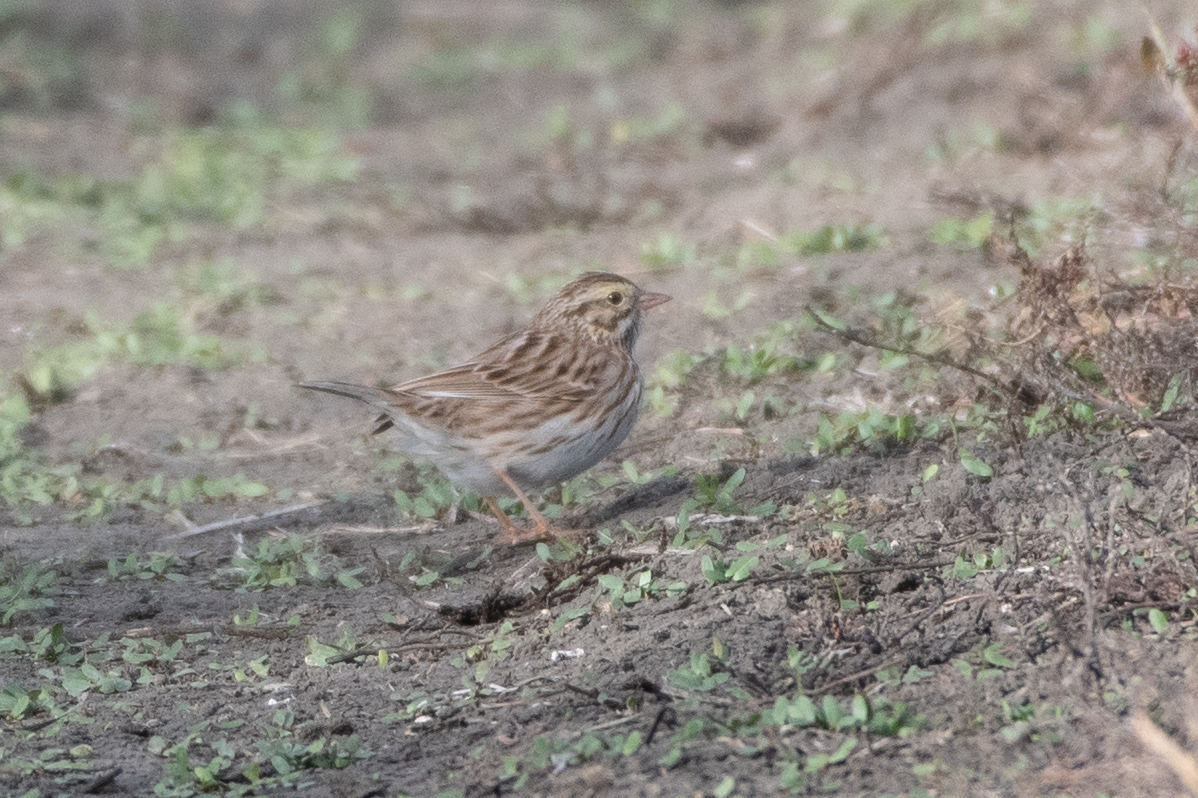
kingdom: Animalia
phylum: Chordata
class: Aves
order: Passeriformes
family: Passerellidae
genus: Passerculus
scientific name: Passerculus sandwichensis
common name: Savannah sparrow
